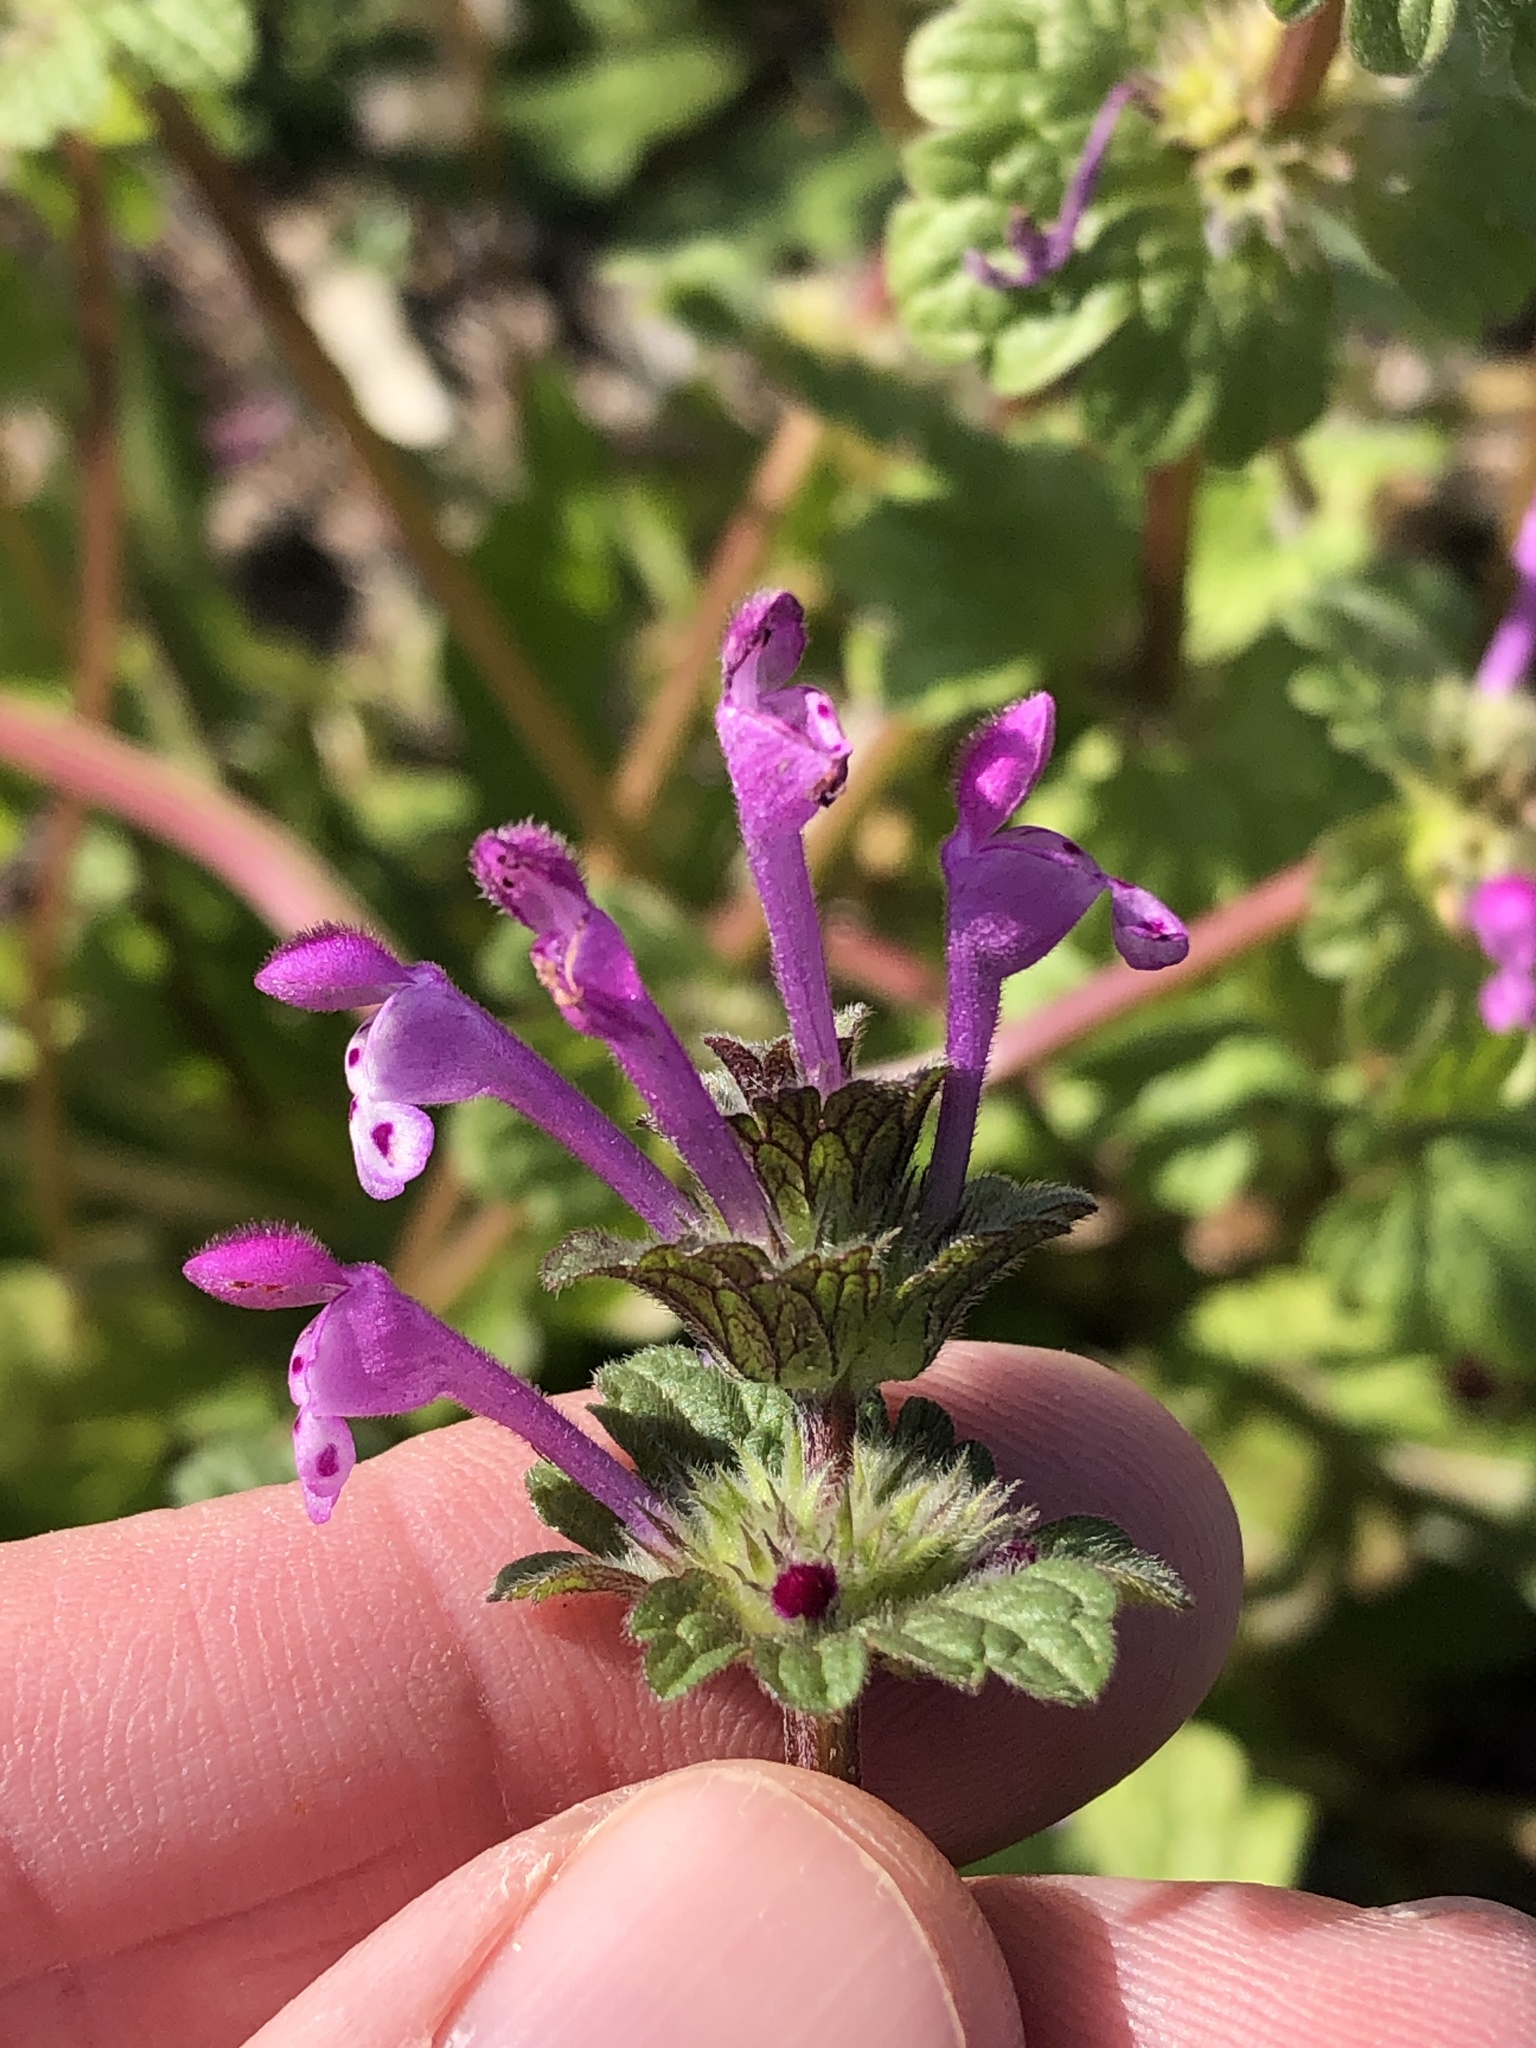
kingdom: Plantae
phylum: Tracheophyta
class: Magnoliopsida
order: Lamiales
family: Lamiaceae
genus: Lamium
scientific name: Lamium amplexicaule
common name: Henbit dead-nettle
